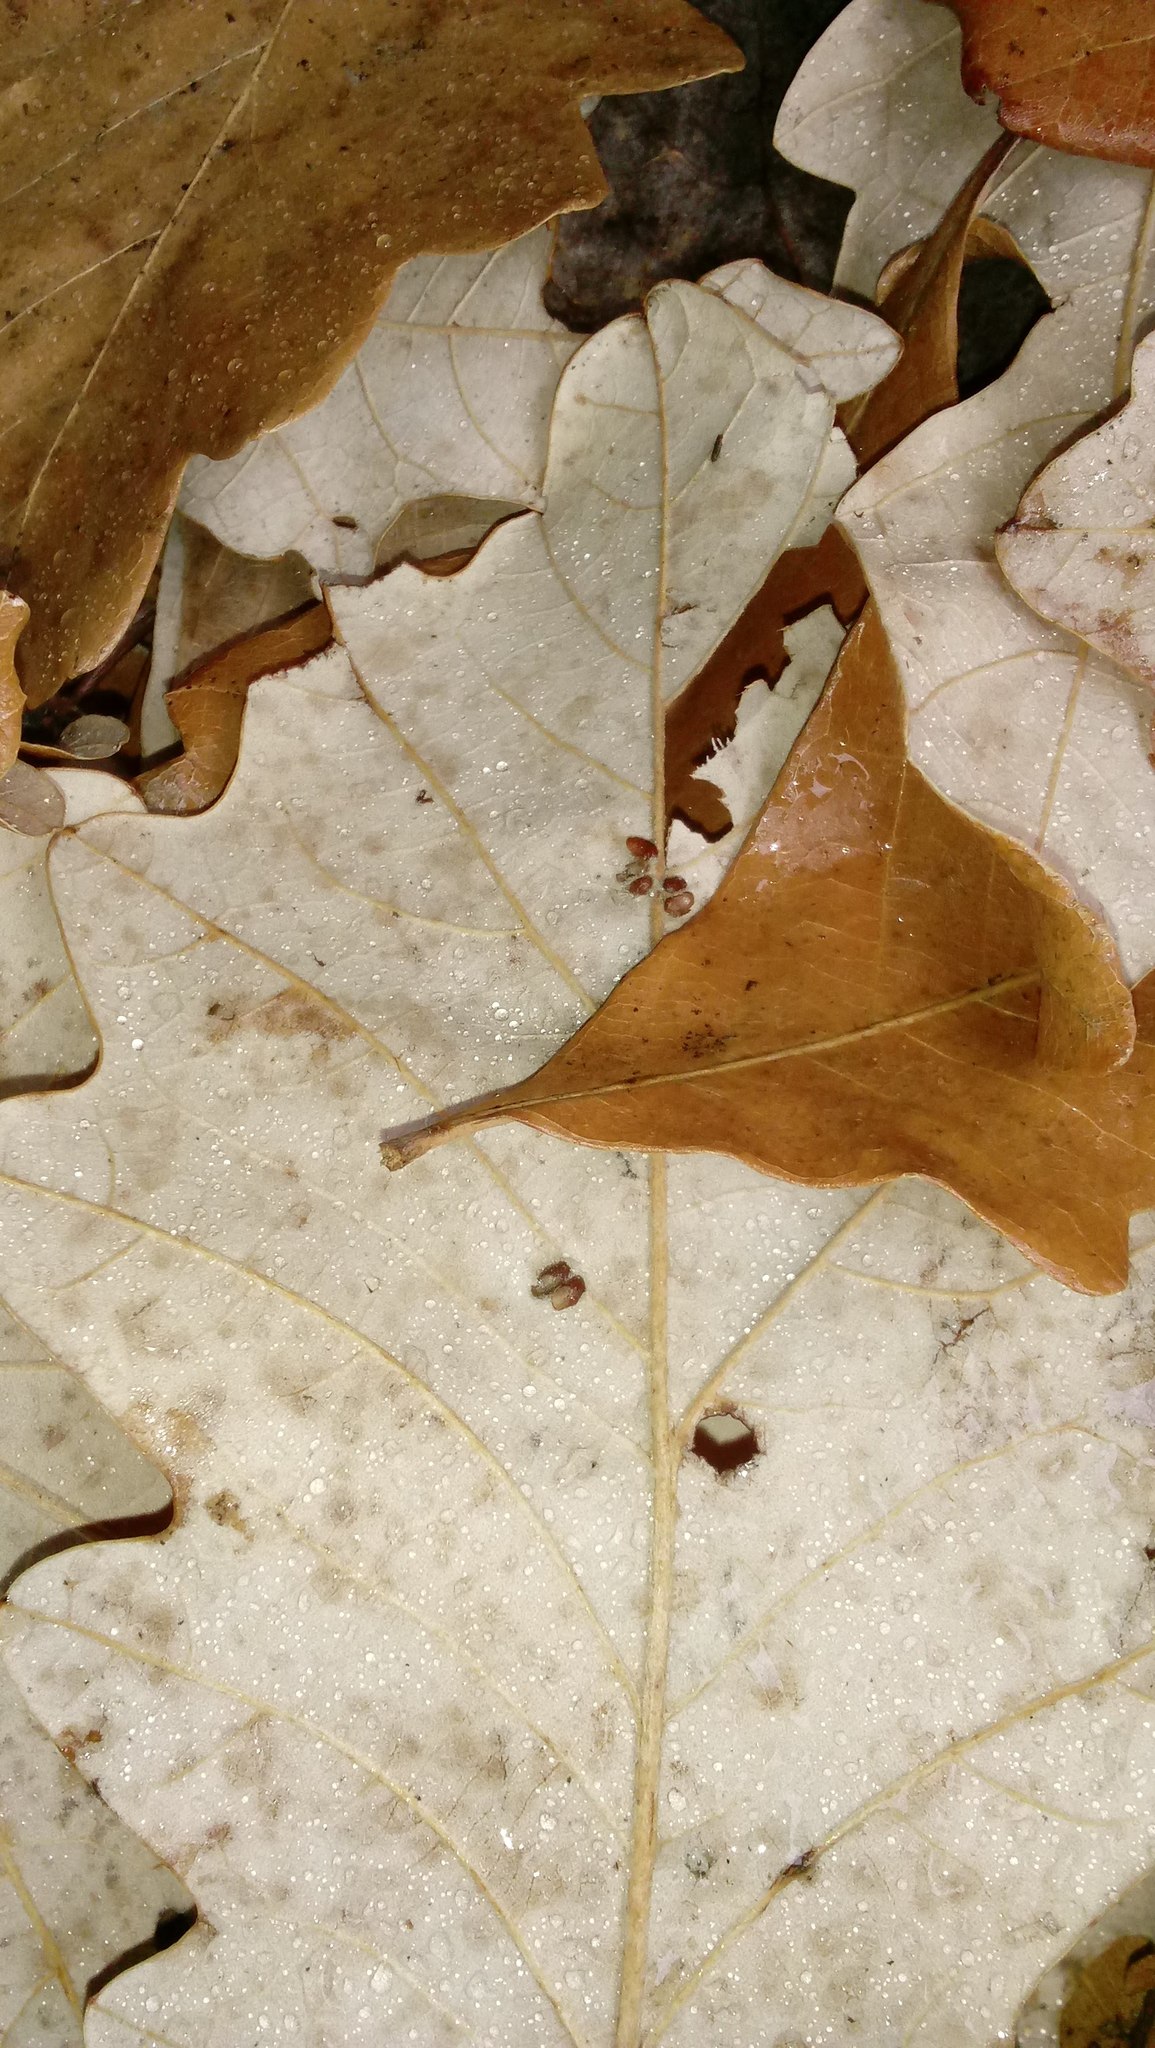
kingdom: Animalia
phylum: Arthropoda
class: Insecta
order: Hymenoptera
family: Cynipidae
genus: Andricus
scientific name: Andricus Druon ignotum
